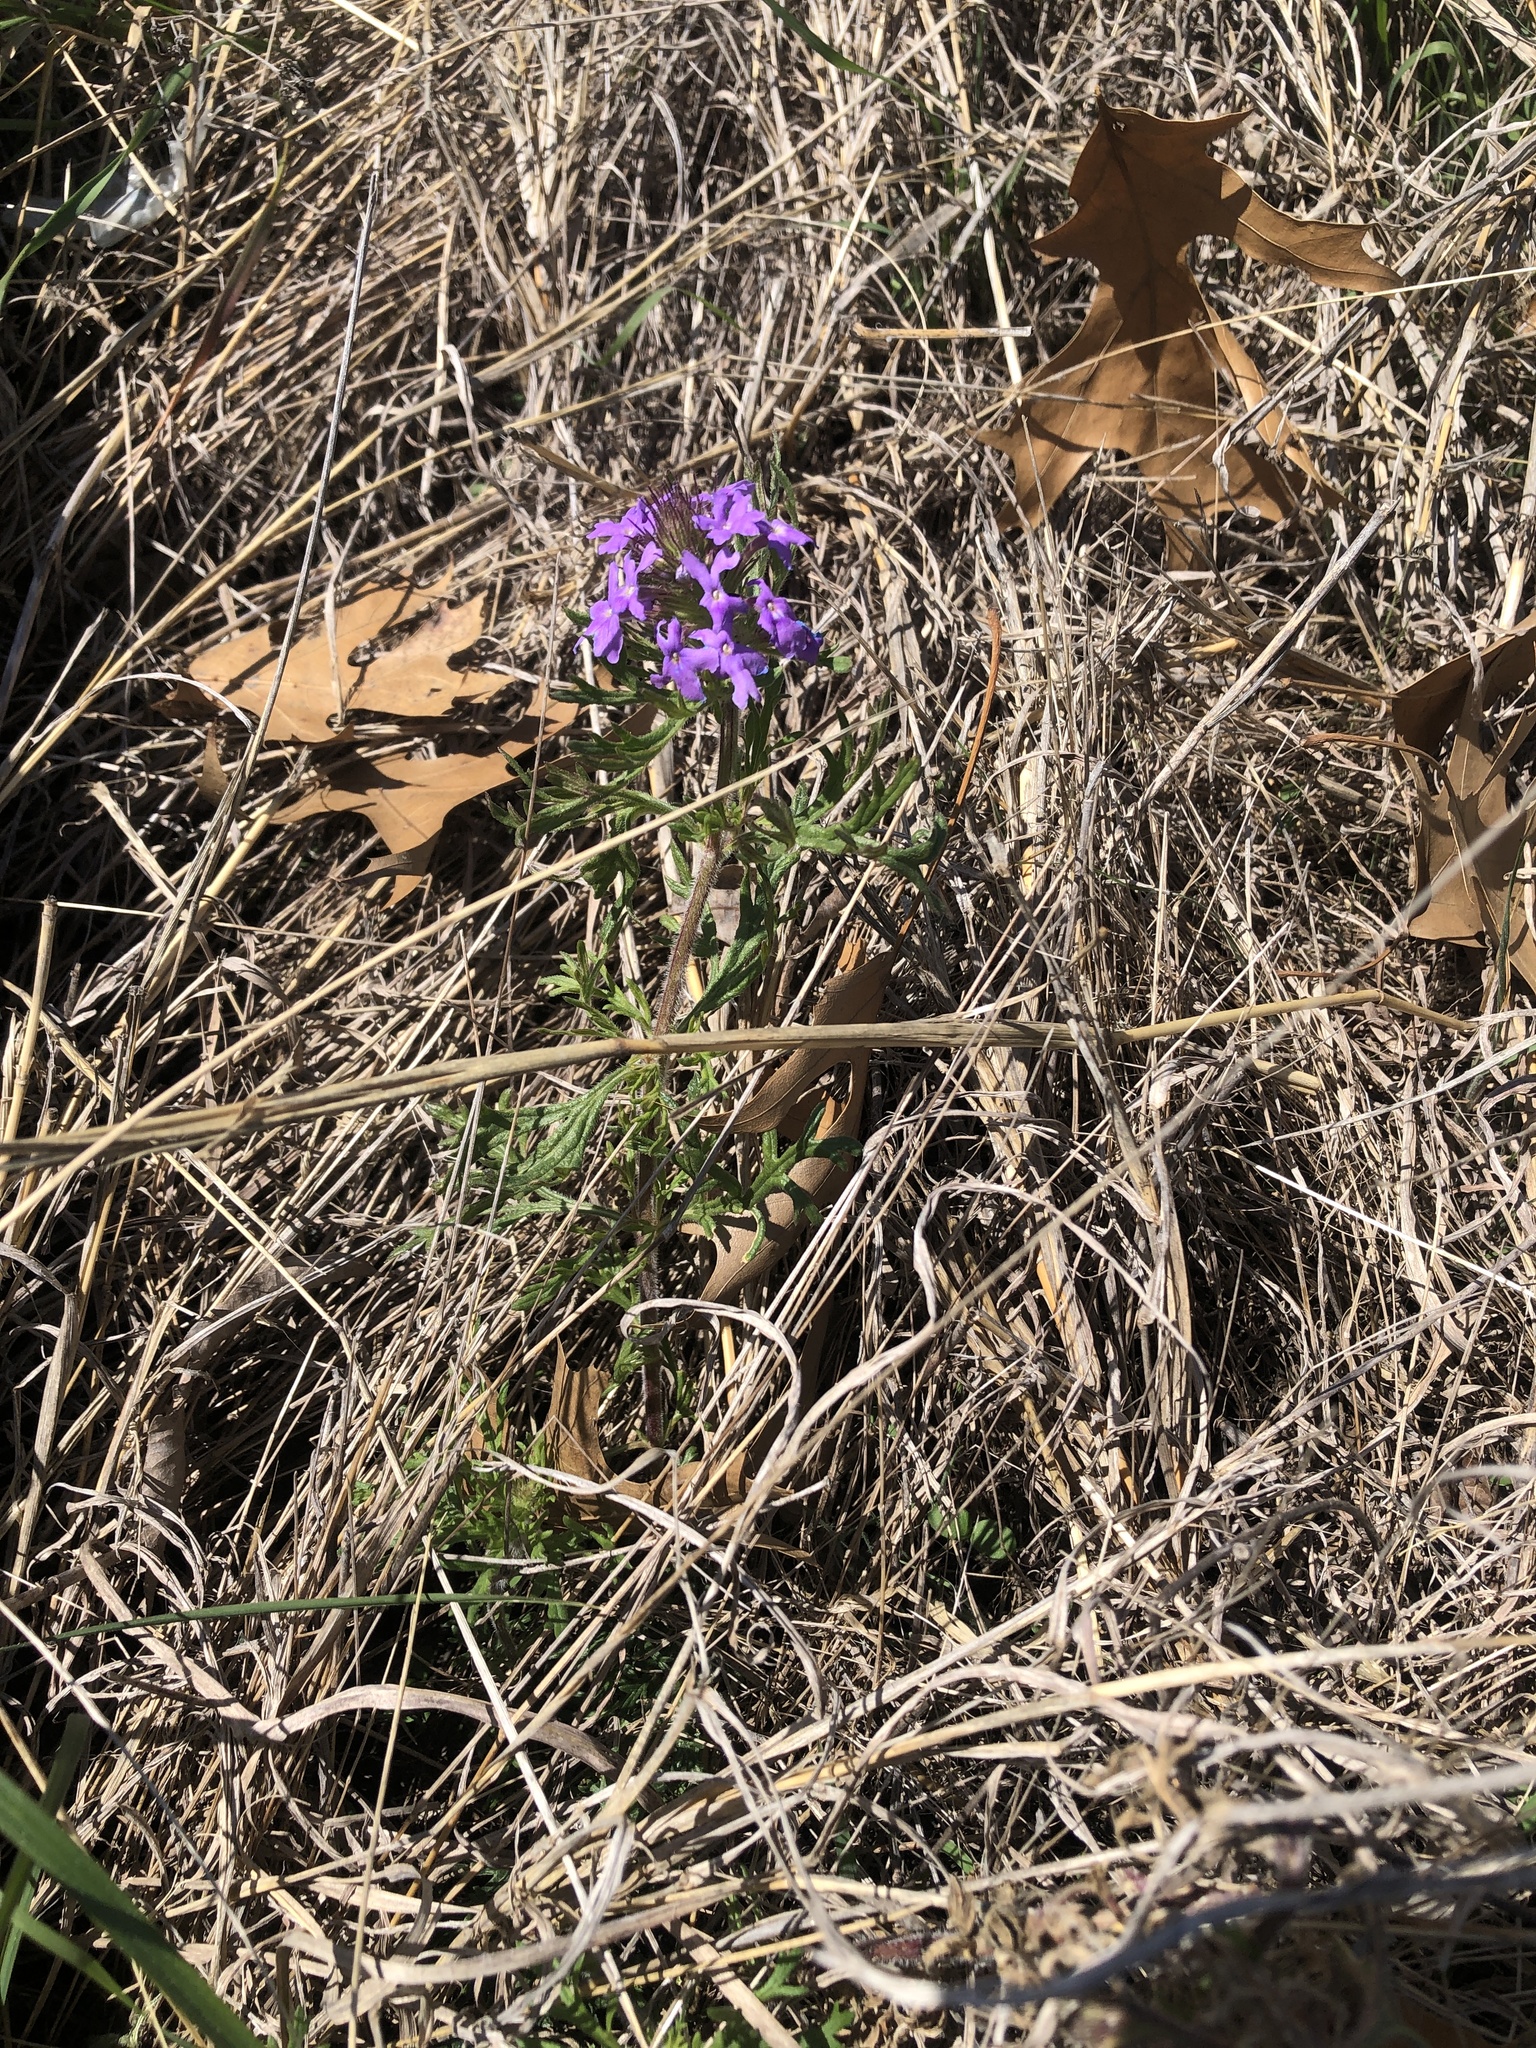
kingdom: Plantae
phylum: Tracheophyta
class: Magnoliopsida
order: Lamiales
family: Verbenaceae
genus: Verbena
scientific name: Verbena bipinnatifida
